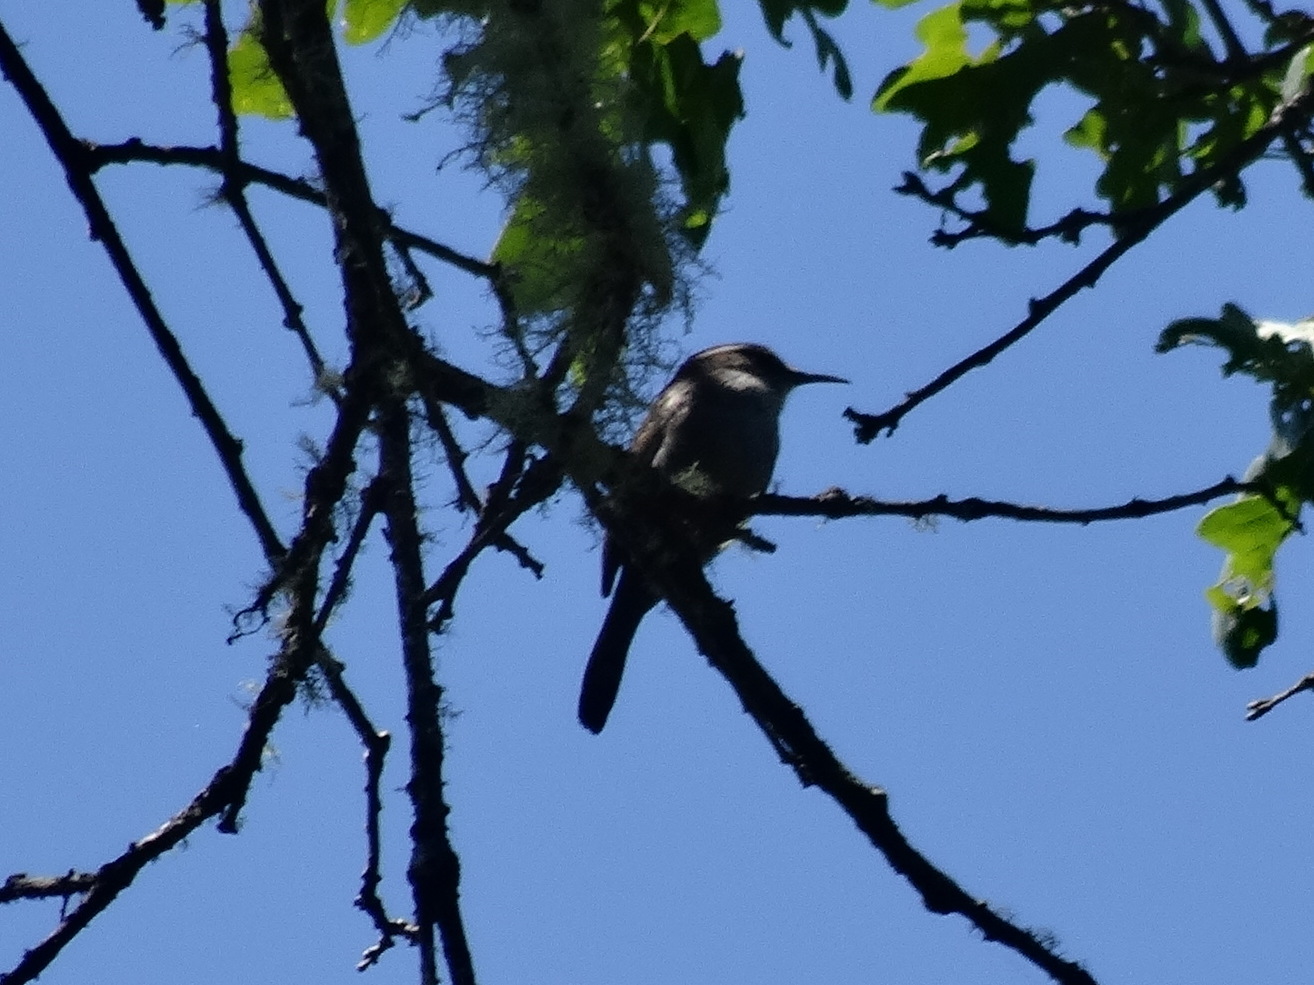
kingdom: Animalia
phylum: Chordata
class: Aves
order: Passeriformes
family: Troglodytidae
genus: Thryomanes
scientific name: Thryomanes bewickii
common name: Bewick's wren
